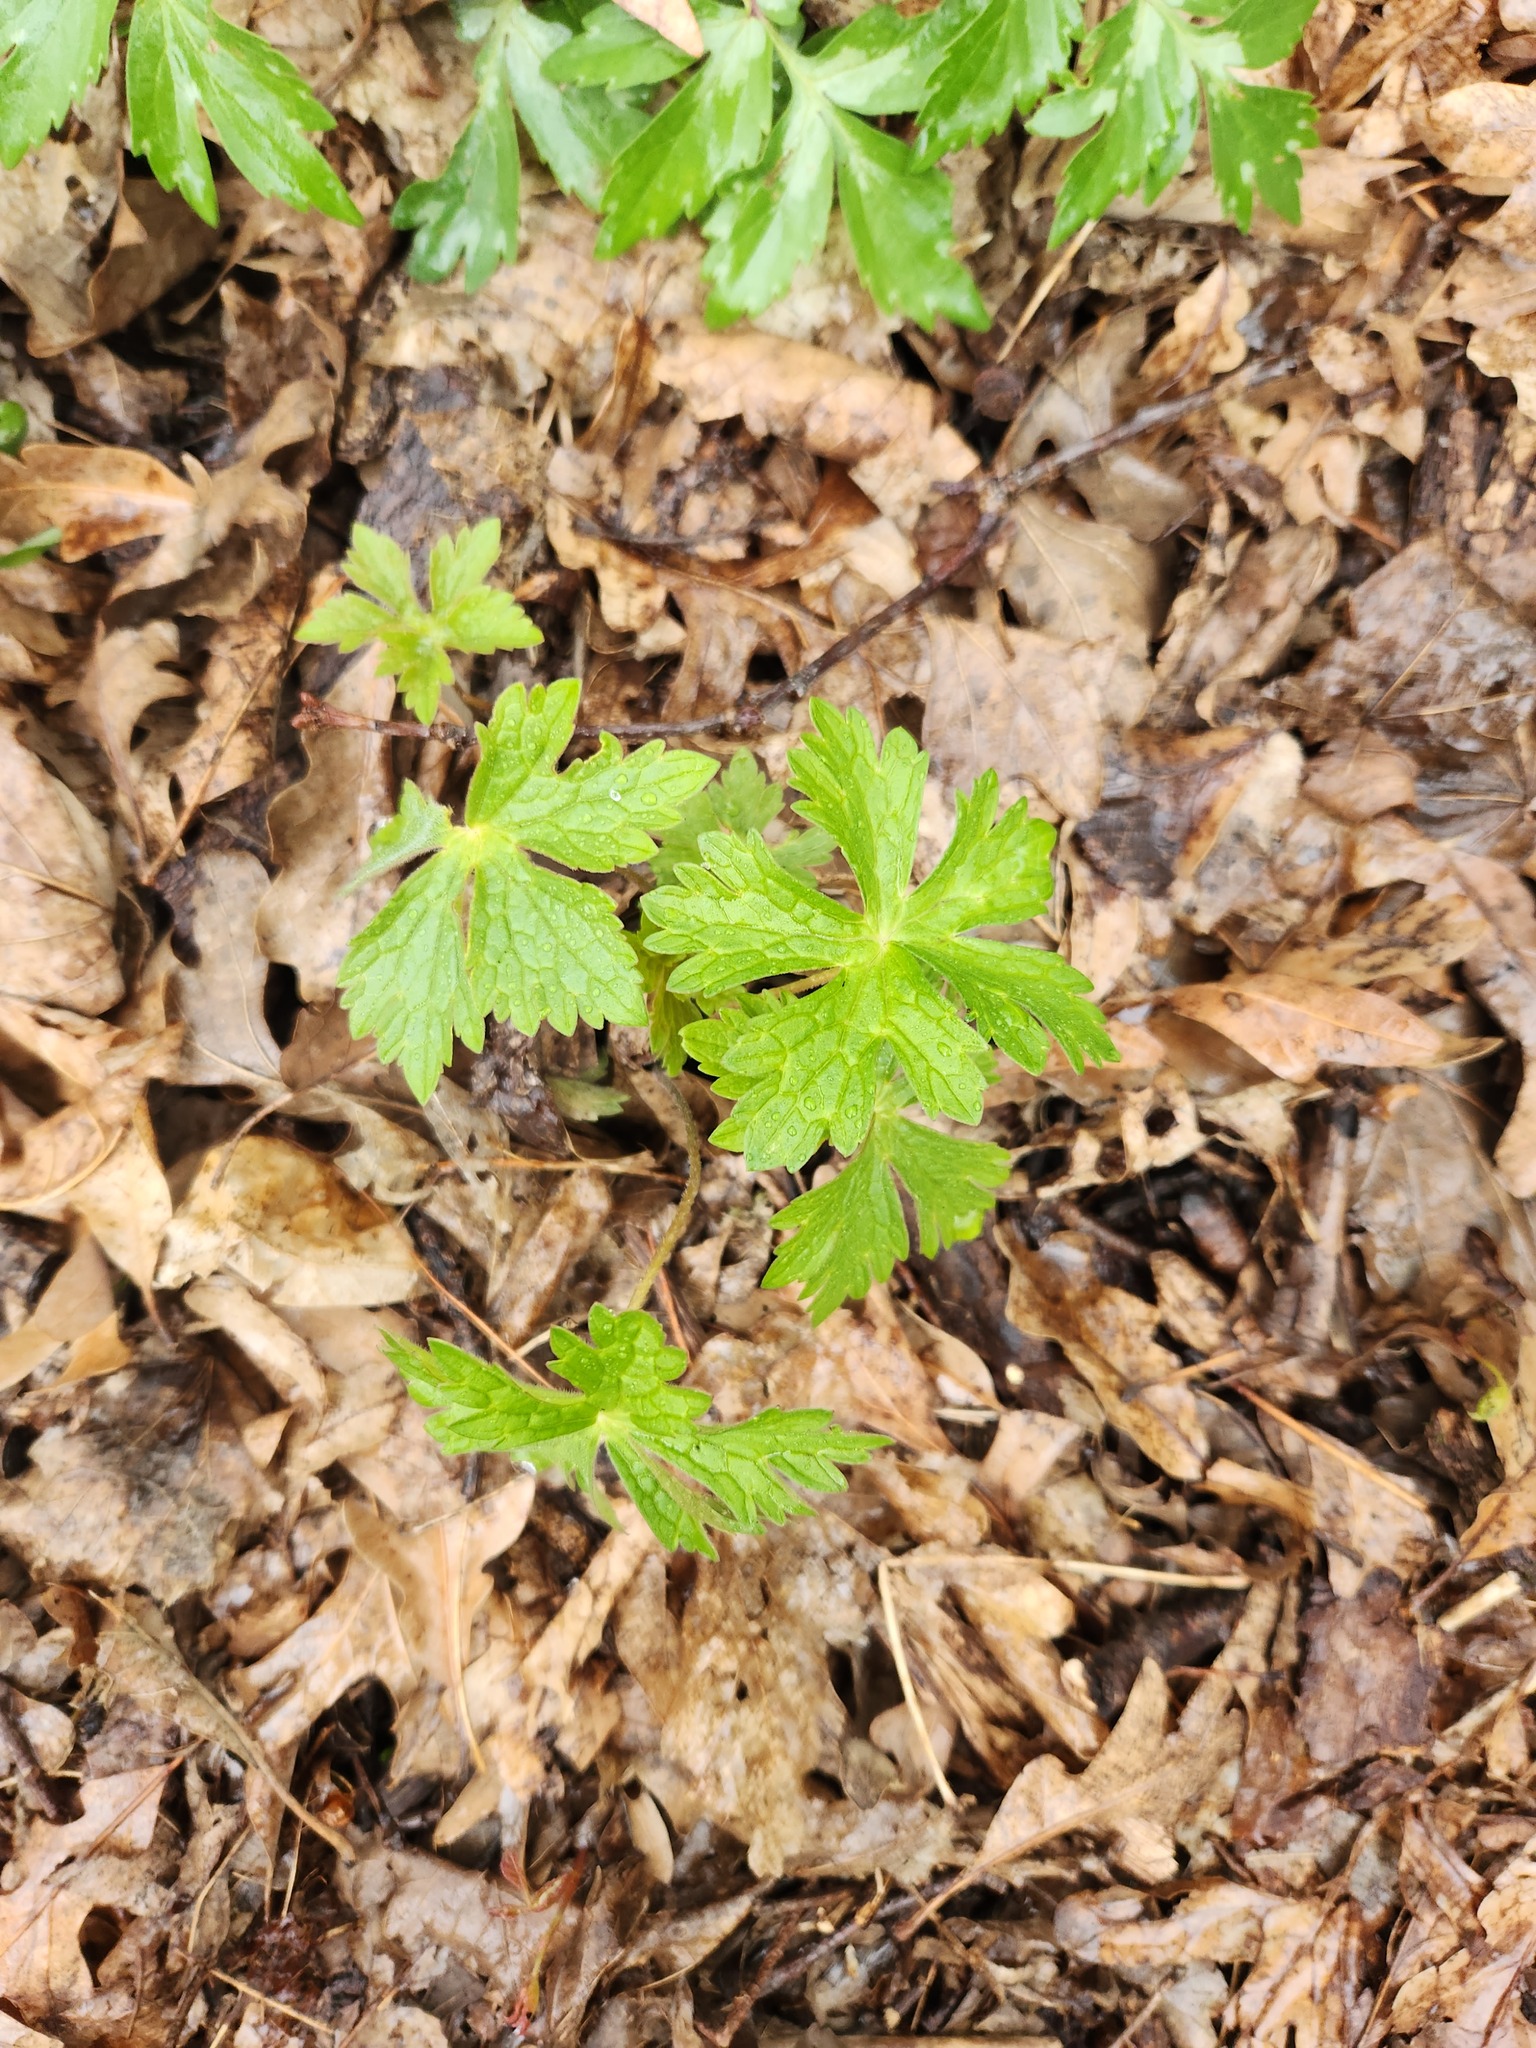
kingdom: Plantae
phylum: Tracheophyta
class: Magnoliopsida
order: Geraniales
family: Geraniaceae
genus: Geranium
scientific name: Geranium maculatum
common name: Spotted geranium
